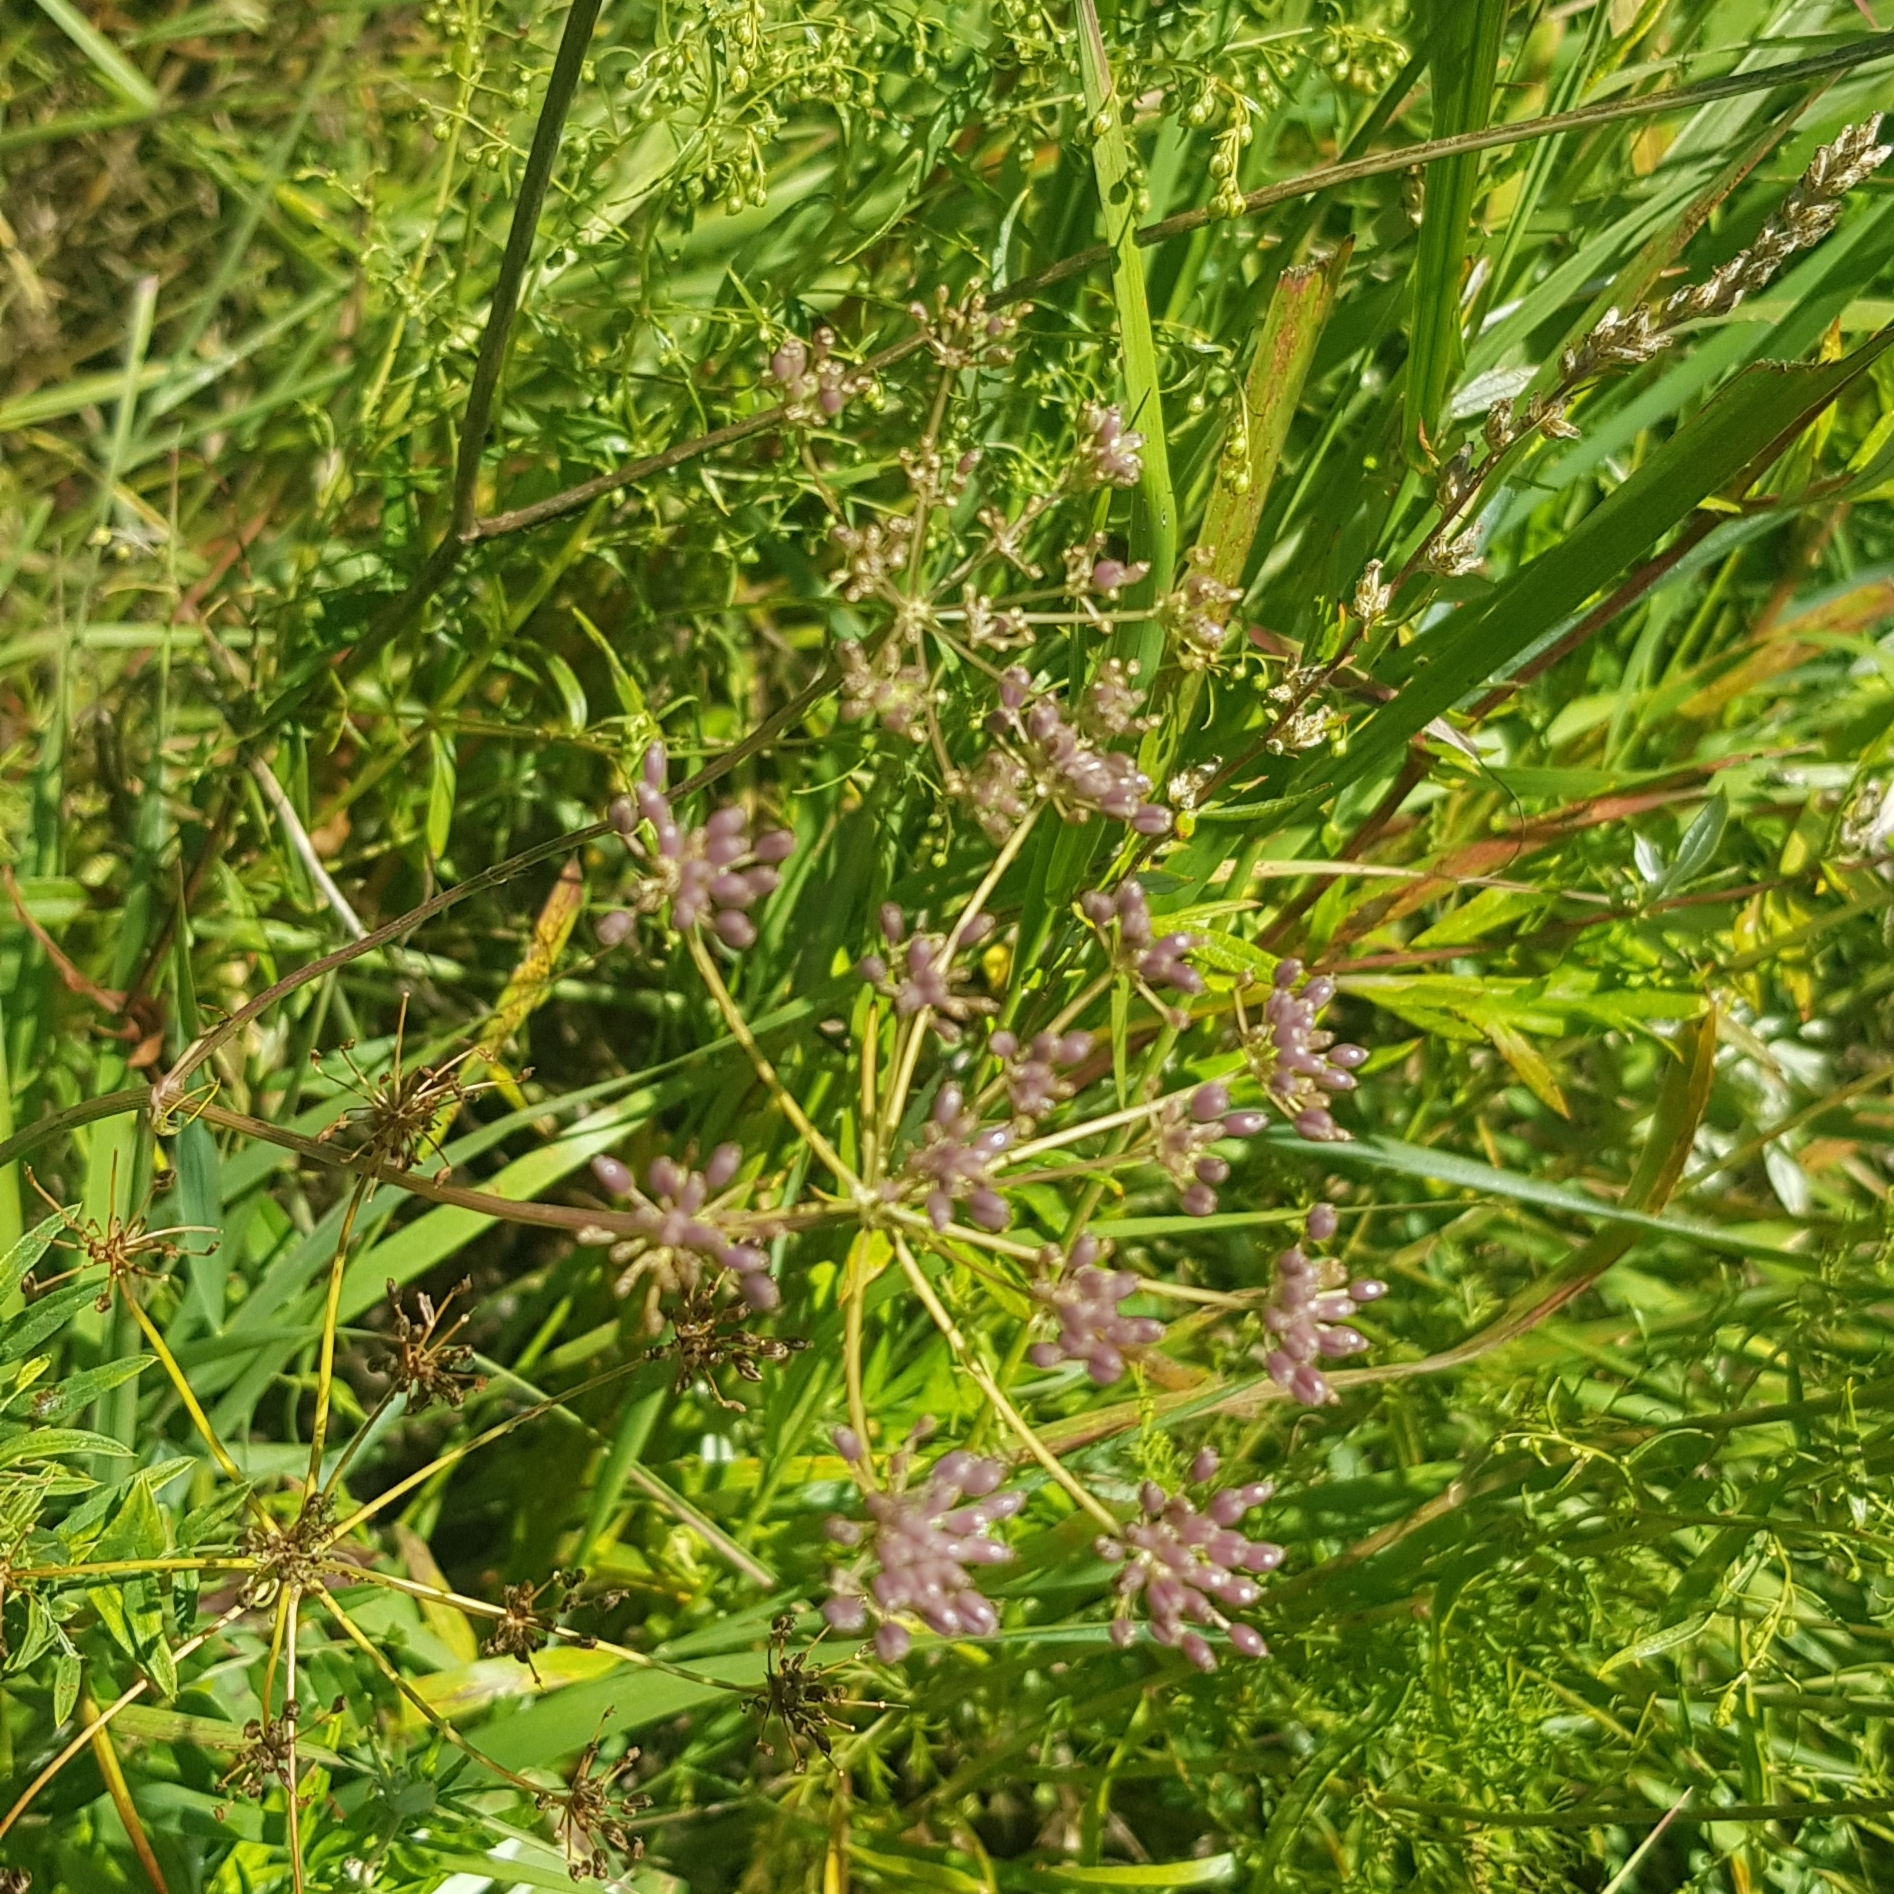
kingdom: Plantae
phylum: Tracheophyta
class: Magnoliopsida
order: Apiales
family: Apiaceae
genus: Sium
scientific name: Sium suave
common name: Hemlock water-parsnip
